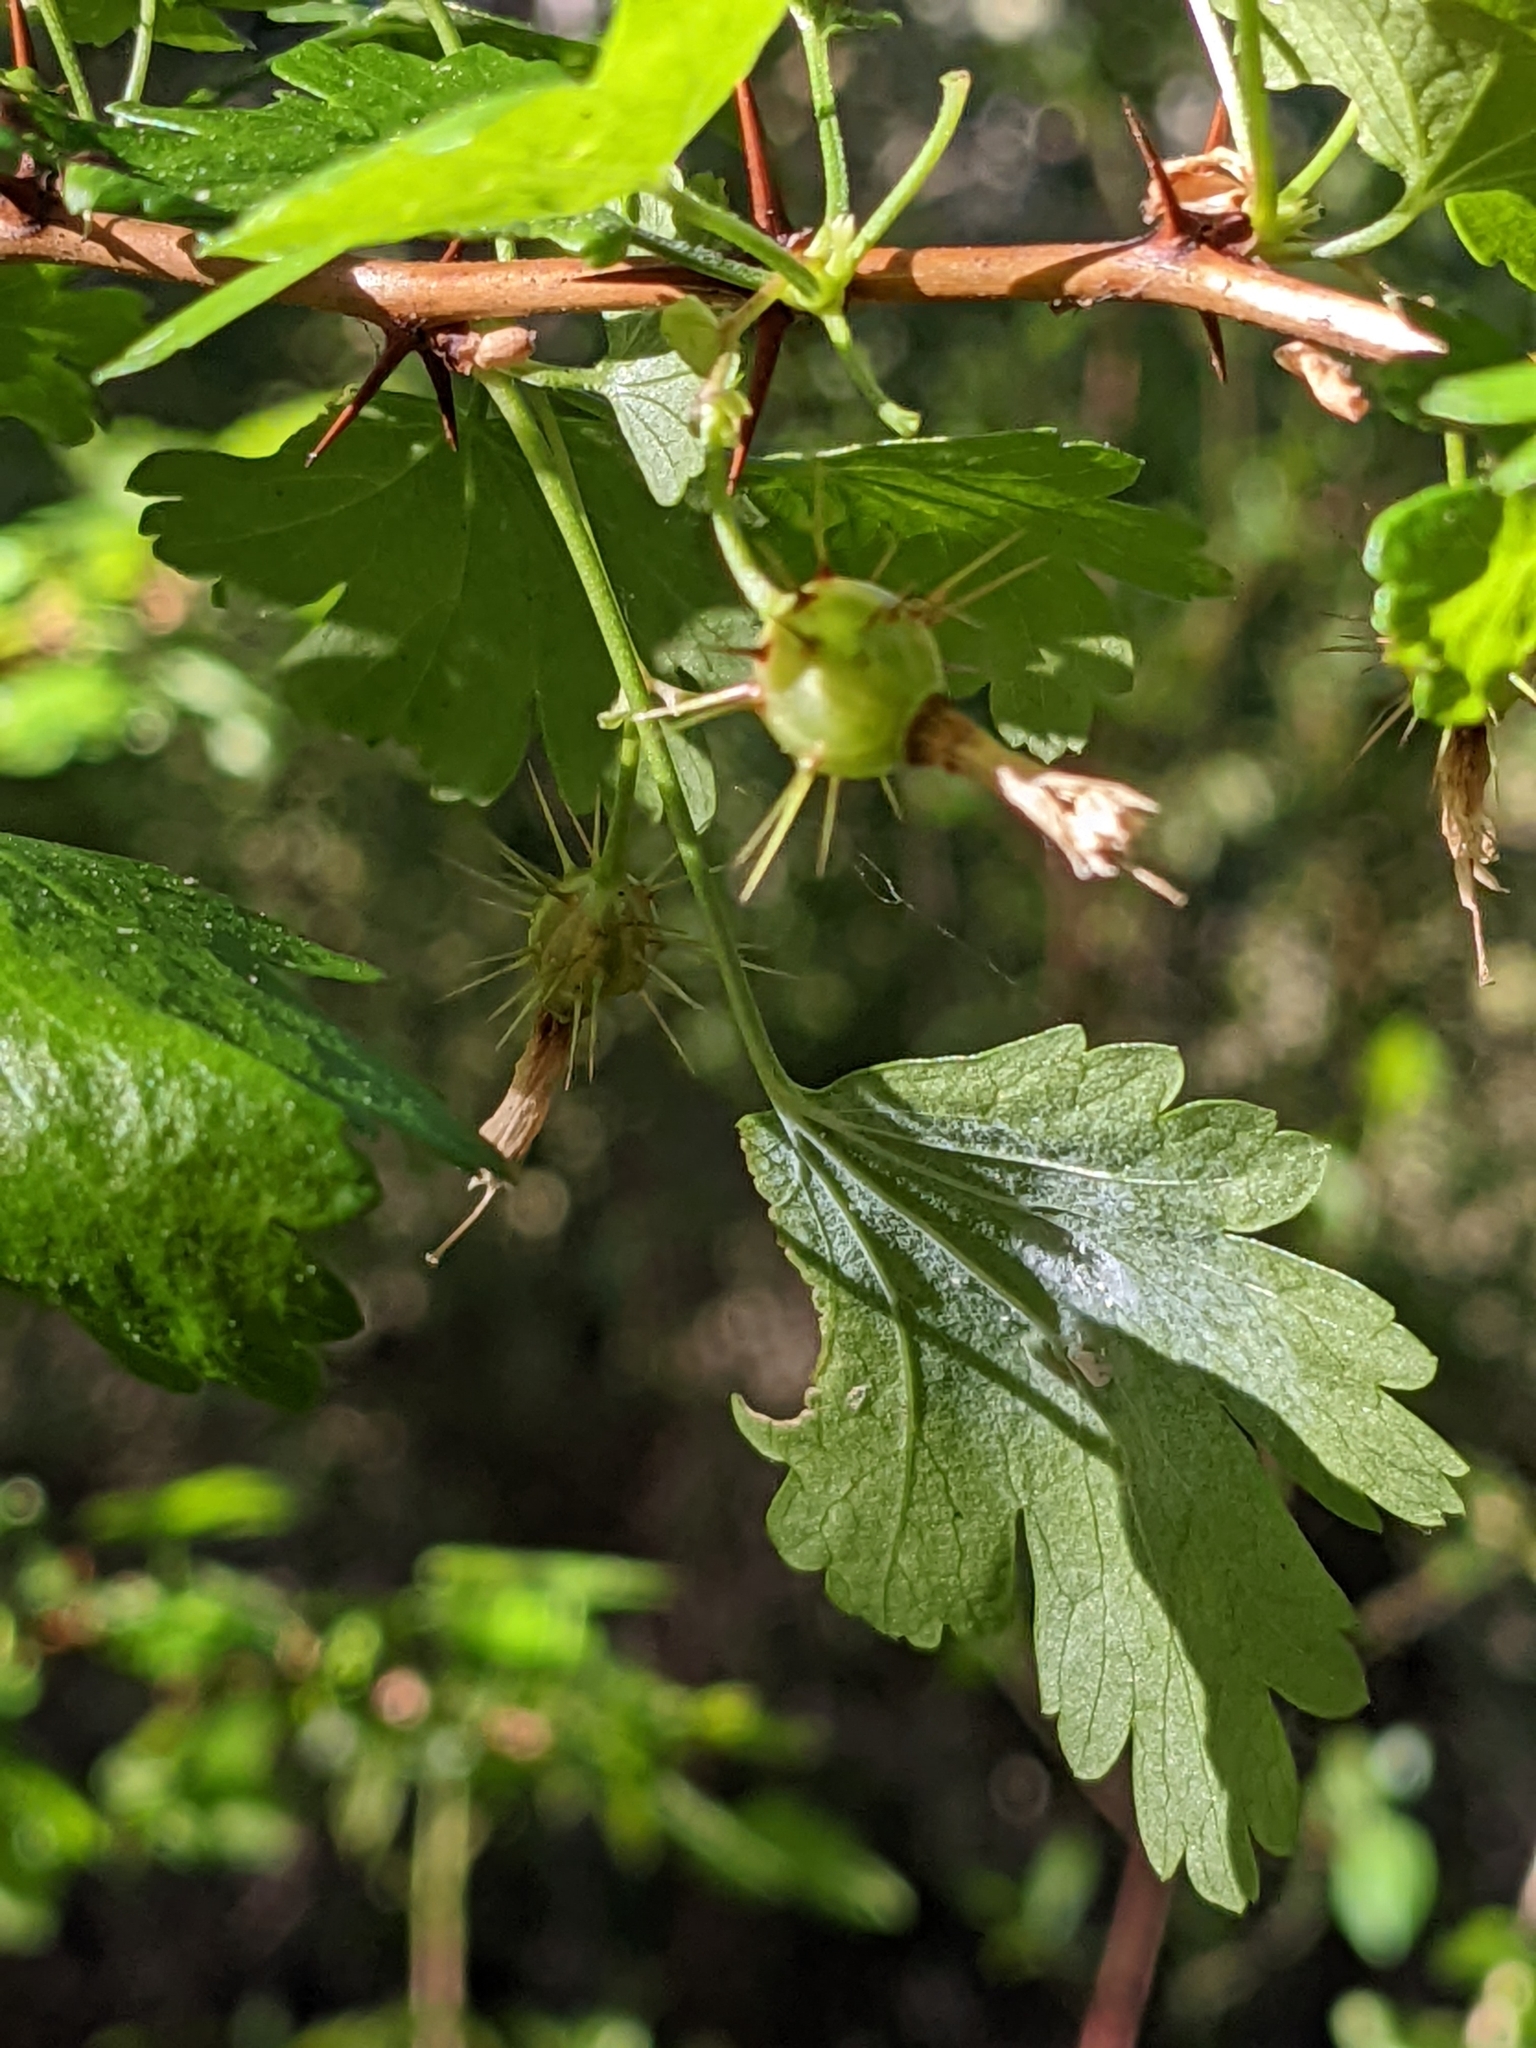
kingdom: Plantae
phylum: Tracheophyta
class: Magnoliopsida
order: Saxifragales
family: Grossulariaceae
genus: Ribes
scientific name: Ribes californicum
